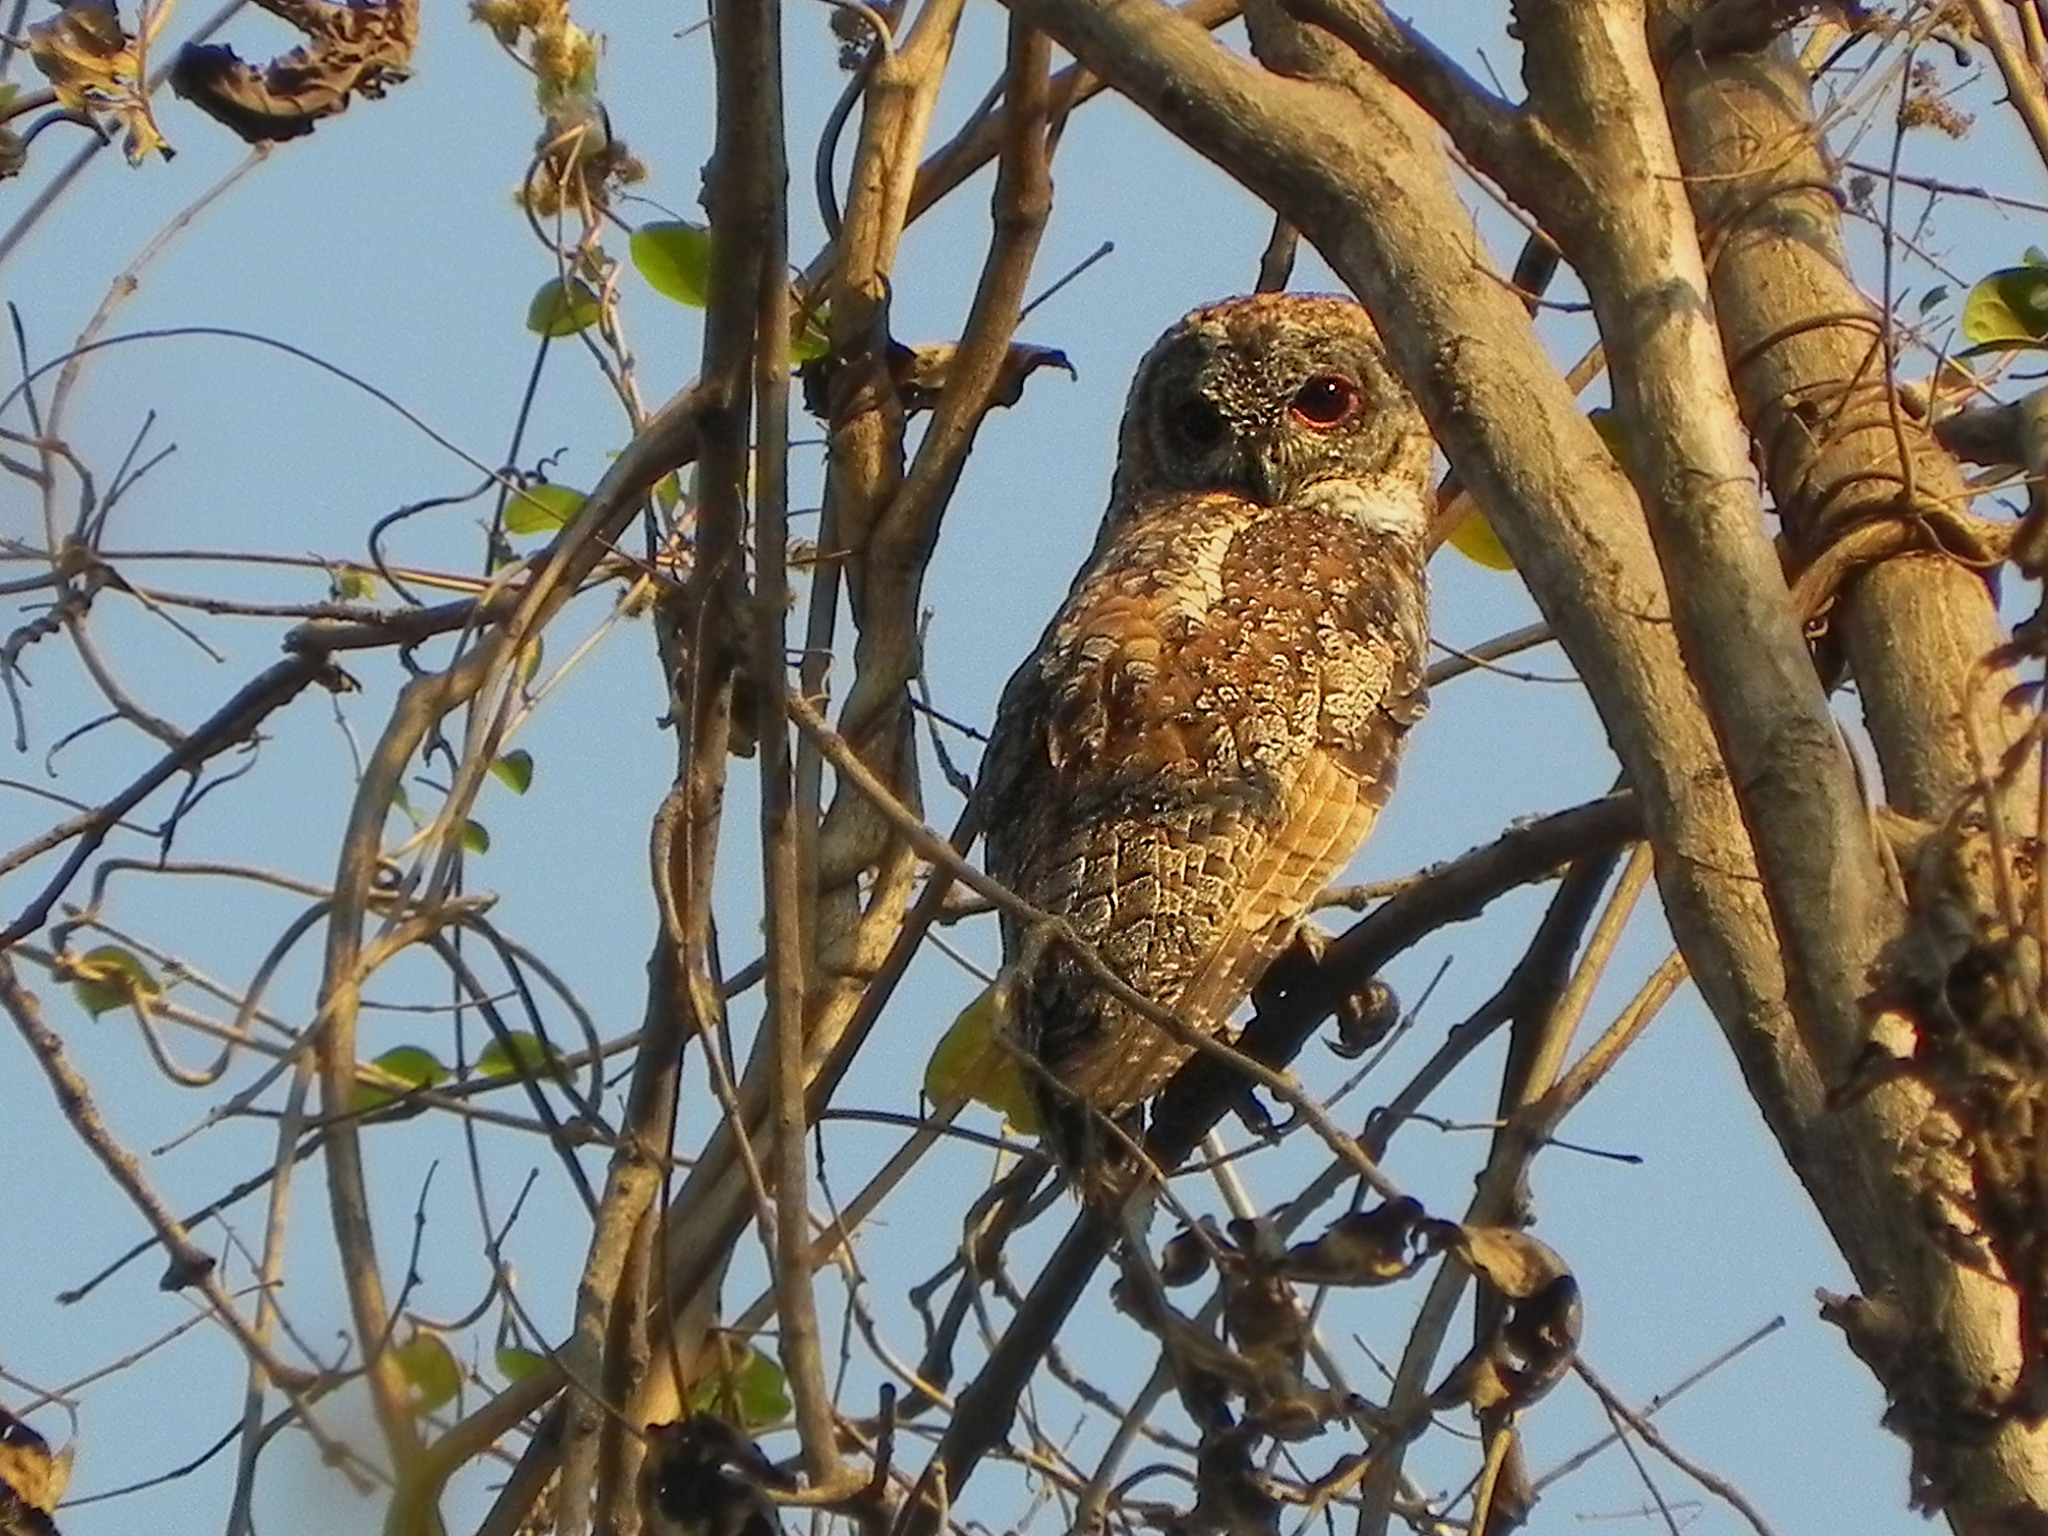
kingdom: Animalia
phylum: Chordata
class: Aves
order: Strigiformes
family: Strigidae
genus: Strix
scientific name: Strix ocellata
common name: Mottled wood owl
